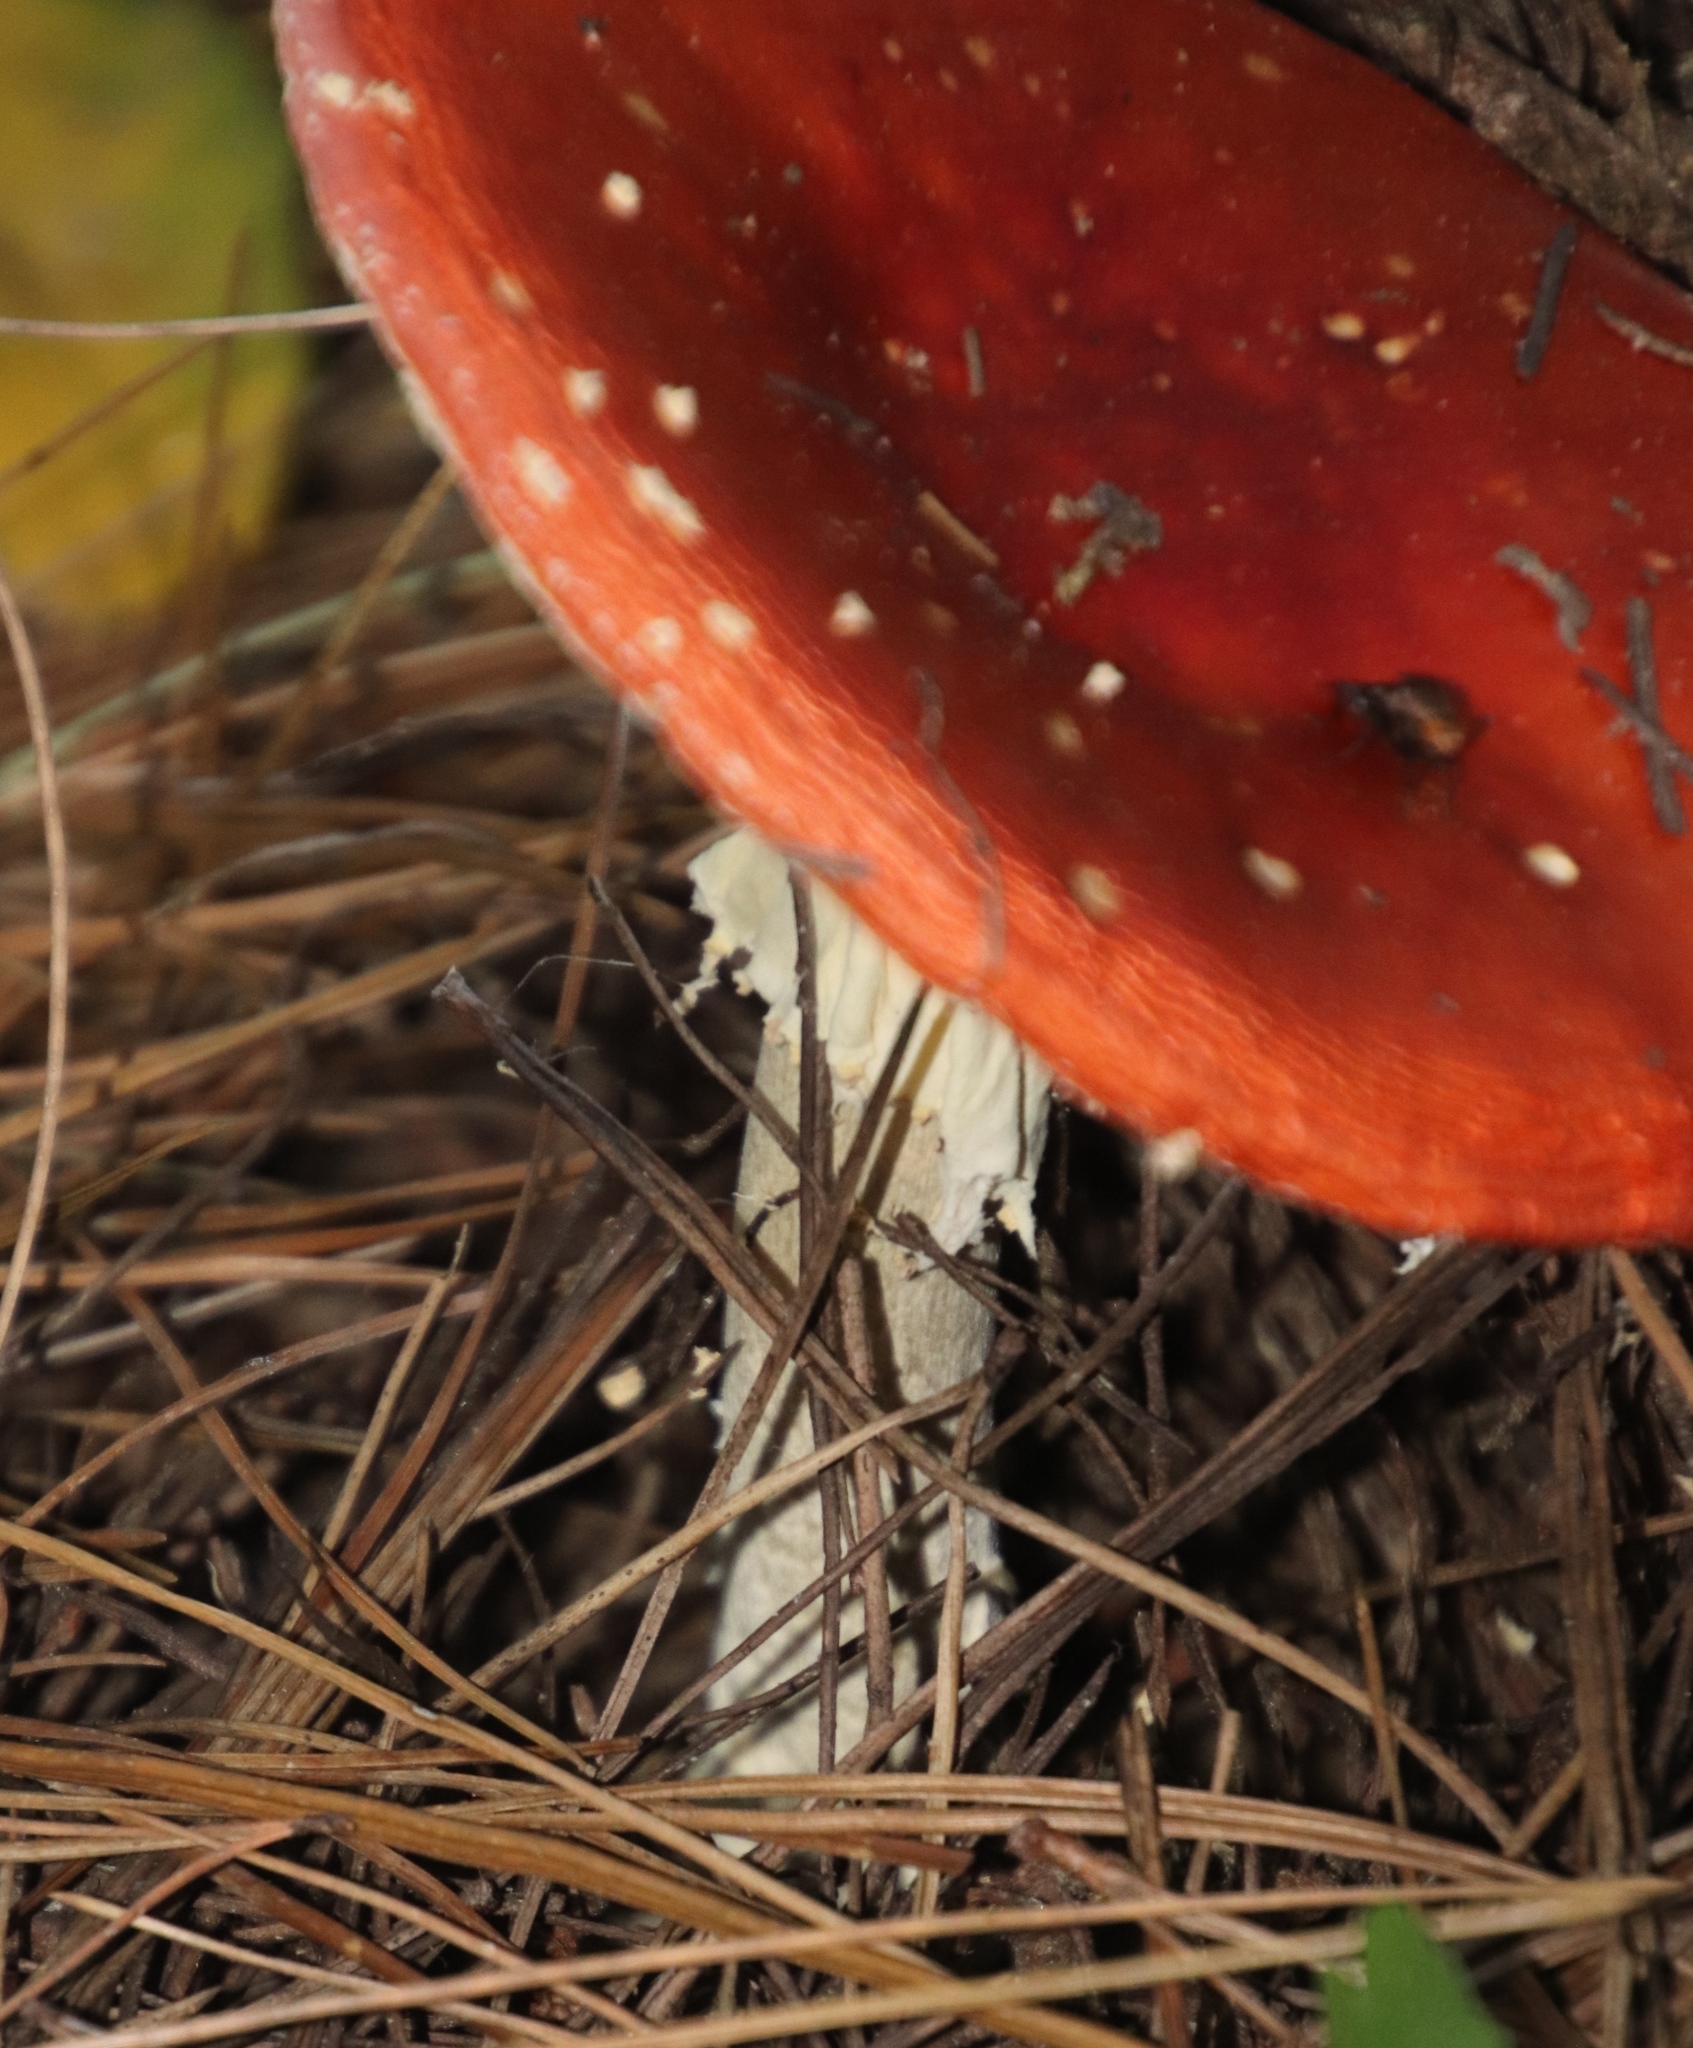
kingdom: Fungi
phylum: Basidiomycota
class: Agaricomycetes
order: Agaricales
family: Amanitaceae
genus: Amanita
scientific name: Amanita muscaria
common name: Fly agaric
